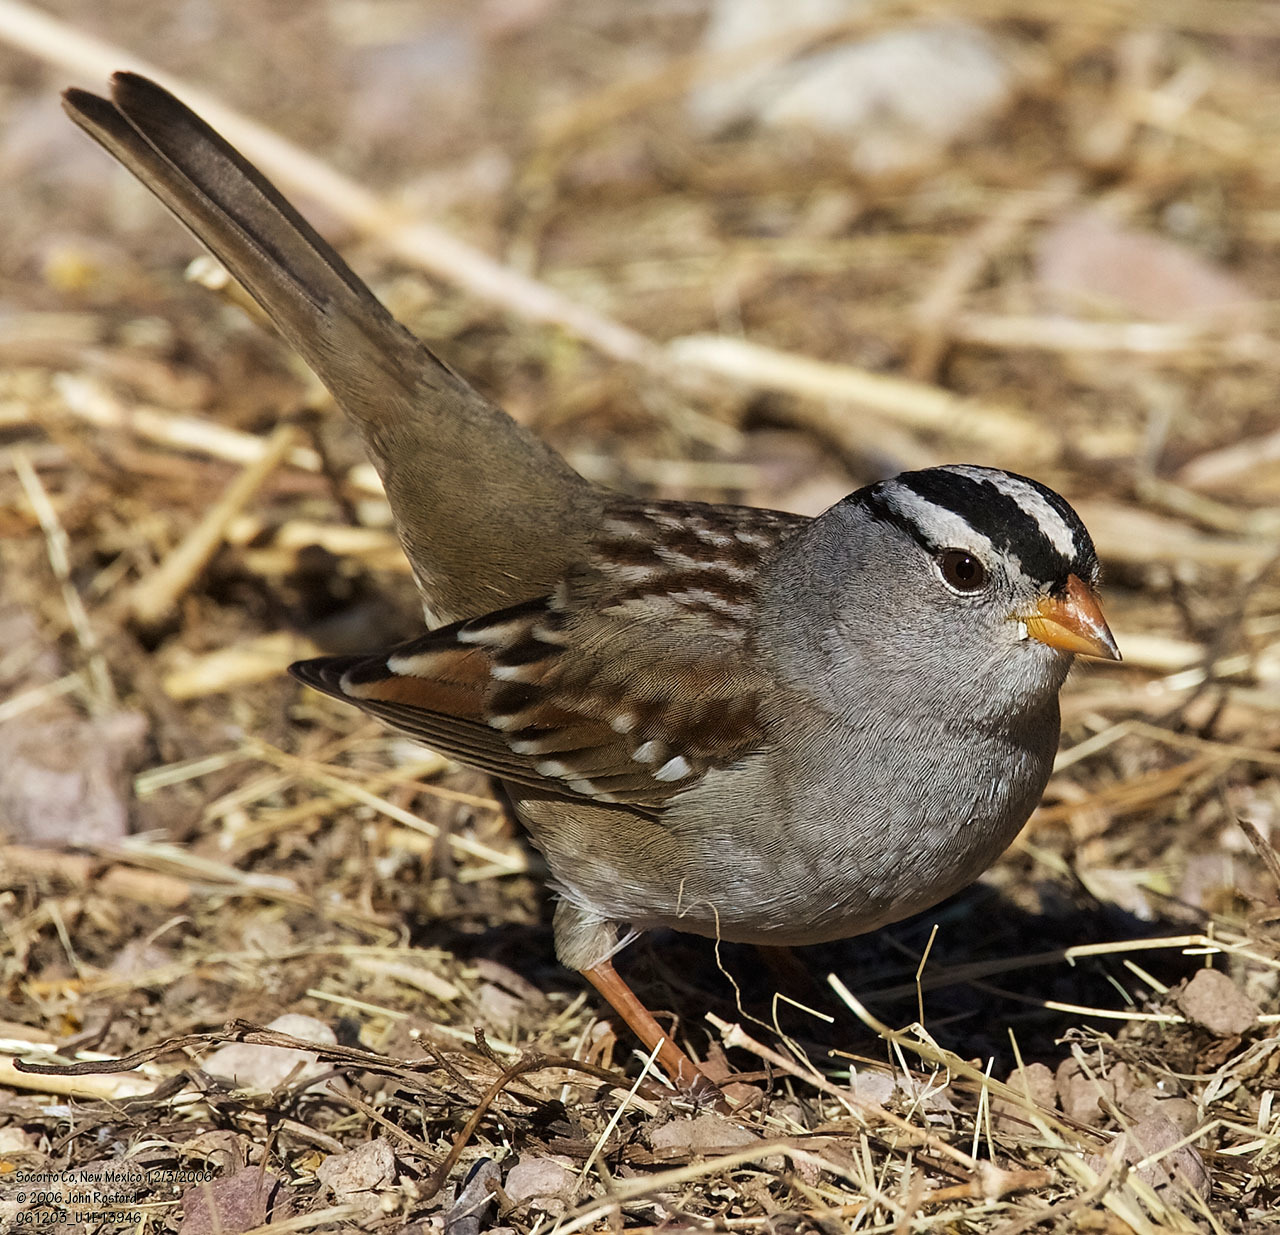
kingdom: Animalia
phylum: Chordata
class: Aves
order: Passeriformes
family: Passerellidae
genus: Zonotrichia
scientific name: Zonotrichia leucophrys
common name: White-crowned sparrow
